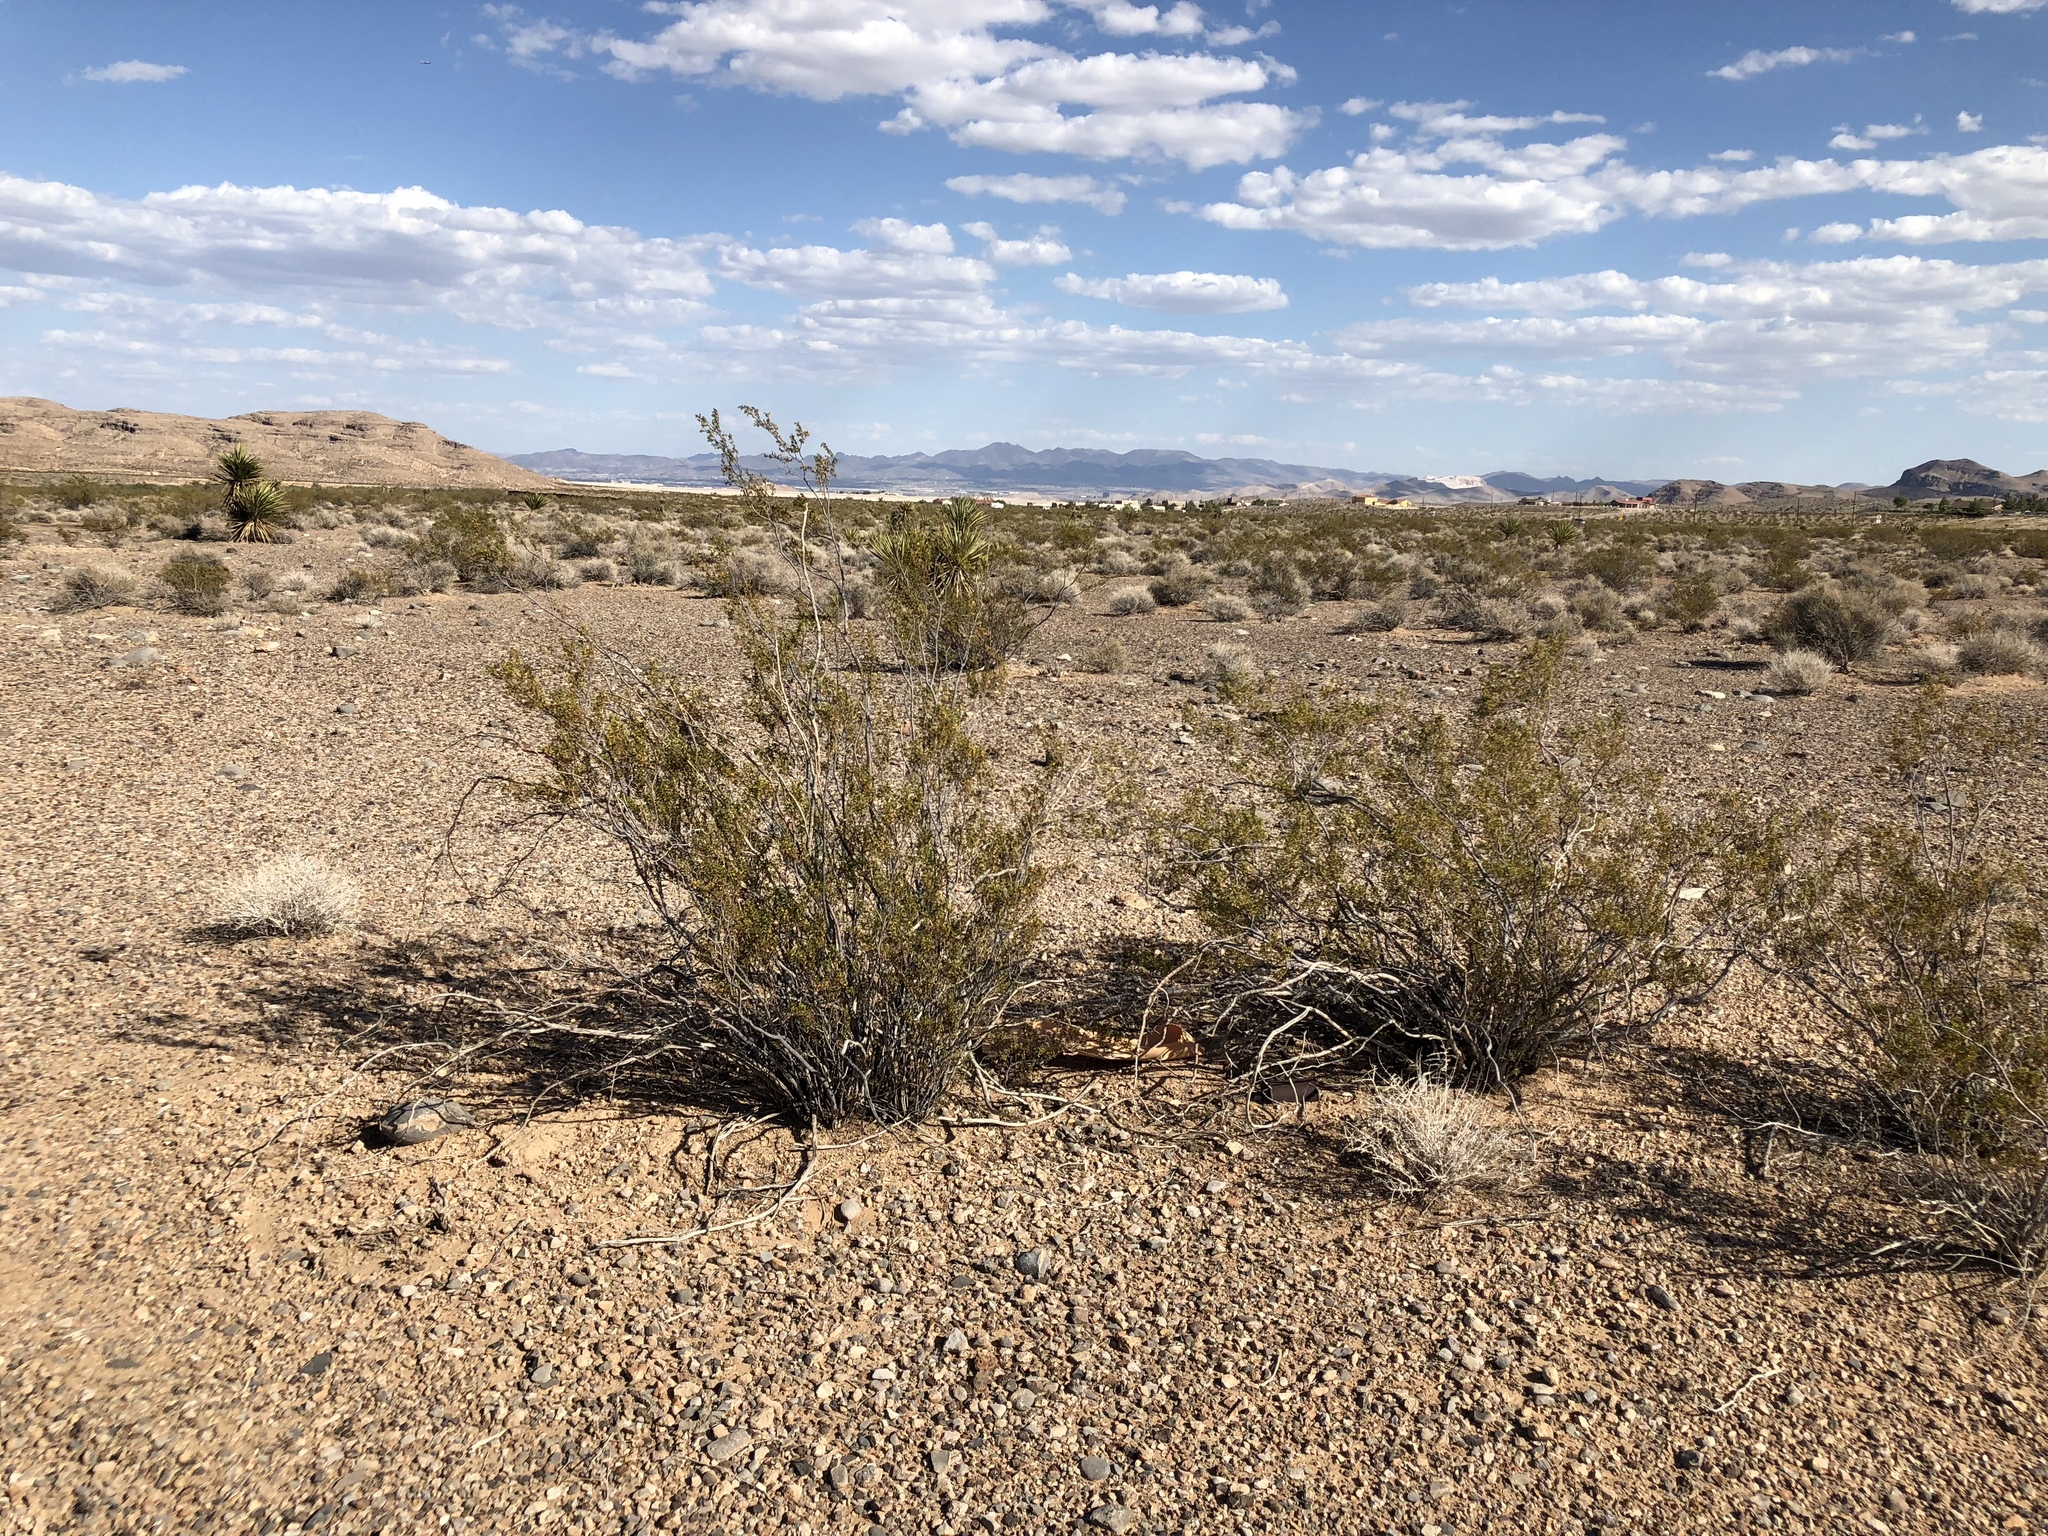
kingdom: Plantae
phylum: Tracheophyta
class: Magnoliopsida
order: Zygophyllales
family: Zygophyllaceae
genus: Larrea
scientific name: Larrea tridentata
